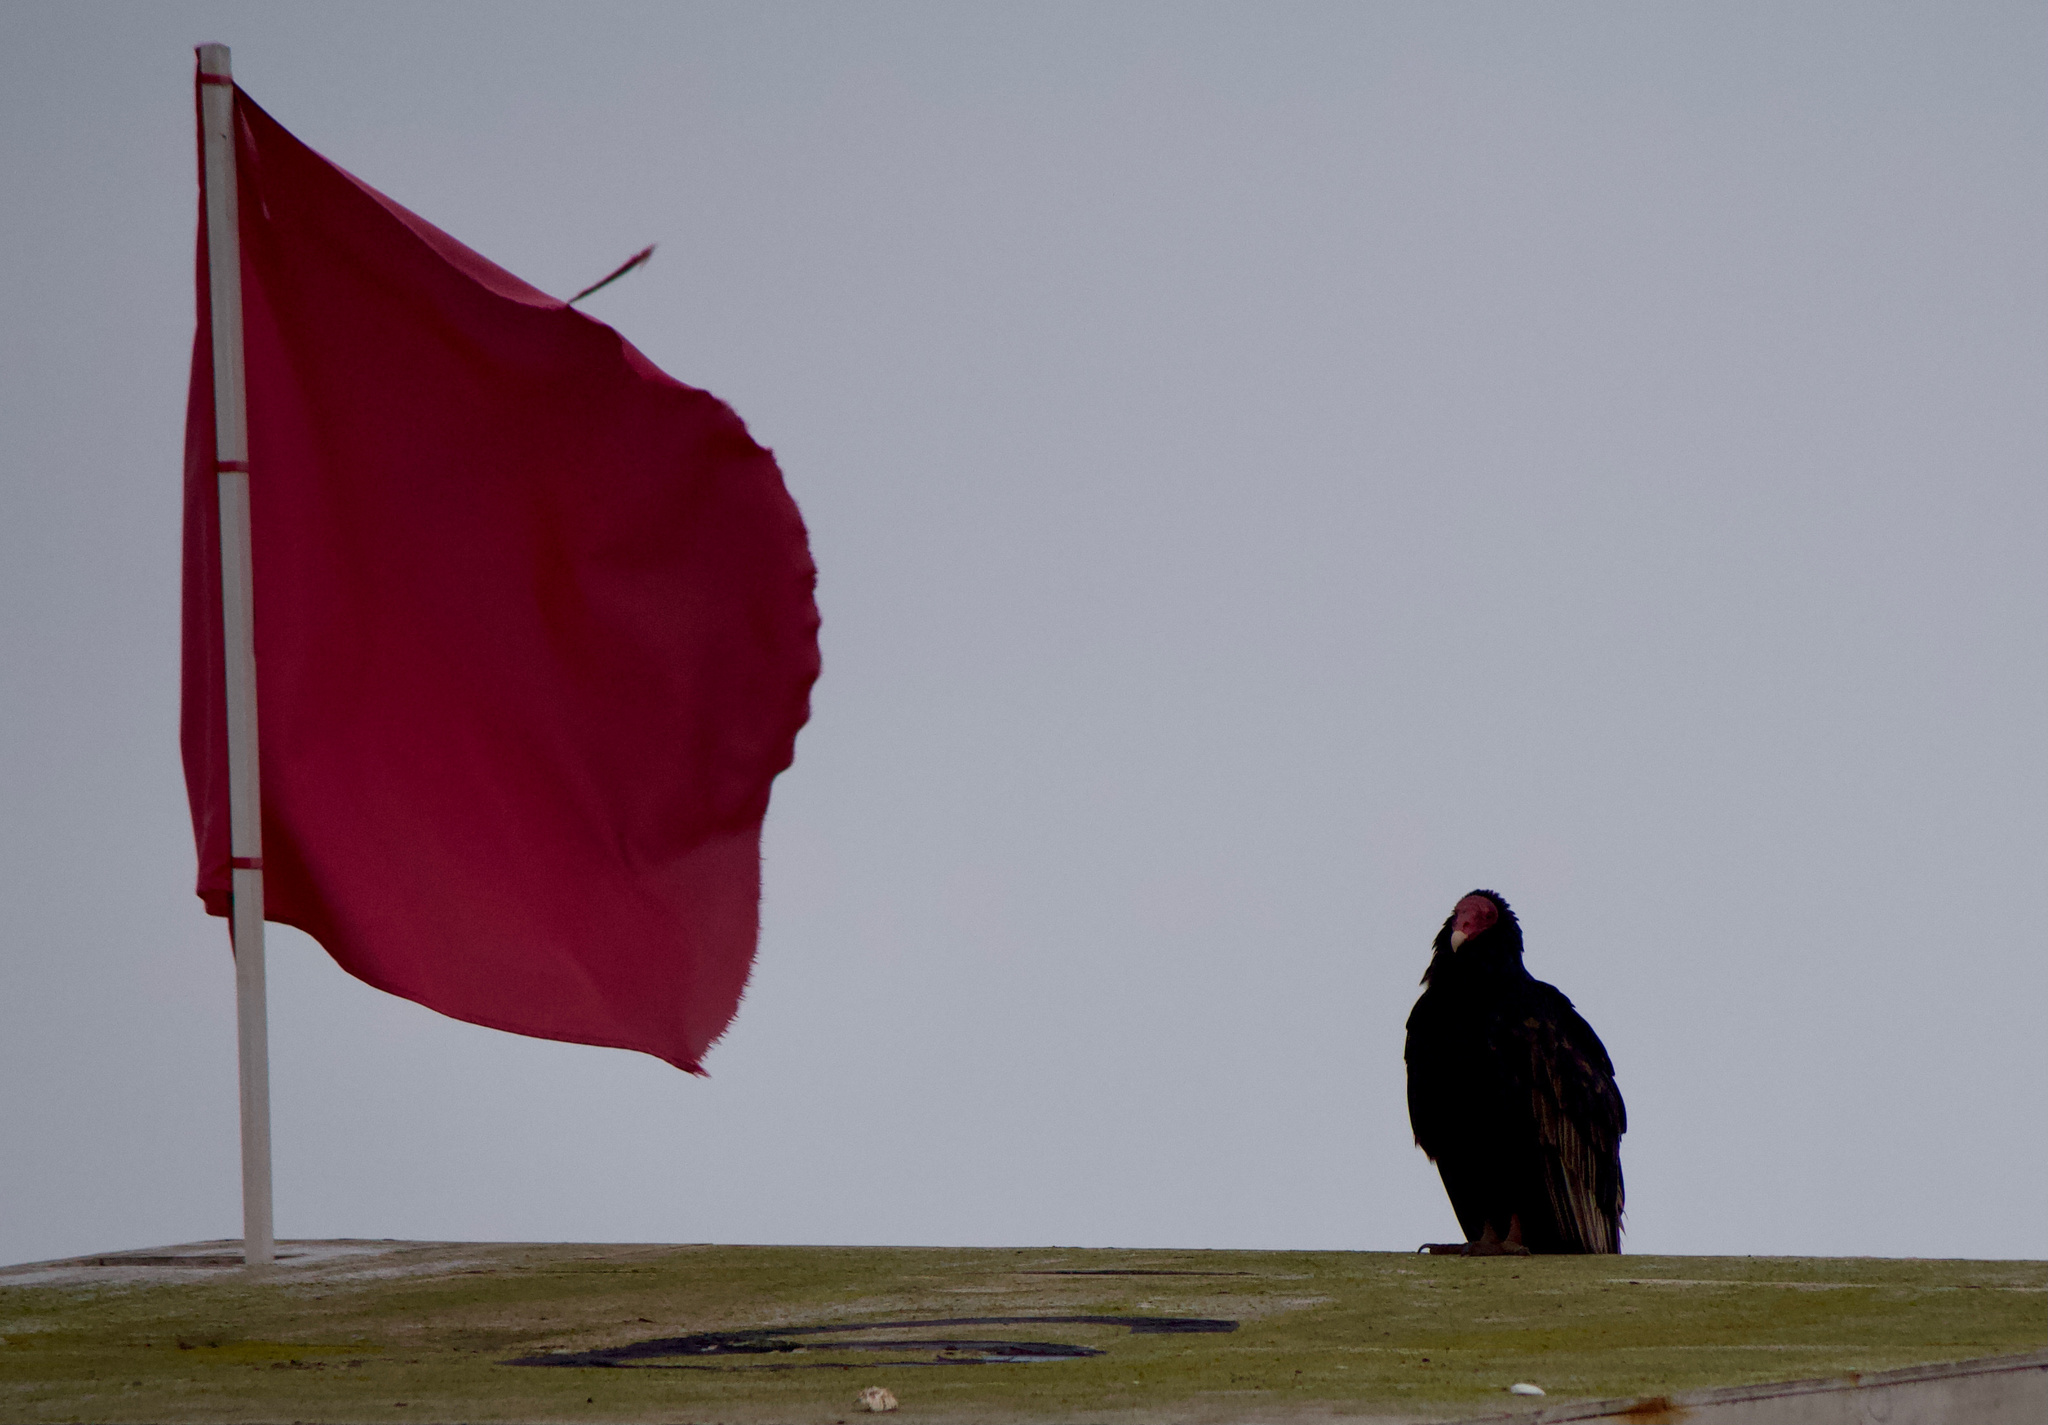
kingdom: Animalia
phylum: Chordata
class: Aves
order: Accipitriformes
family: Cathartidae
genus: Cathartes
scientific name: Cathartes aura
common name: Turkey vulture
